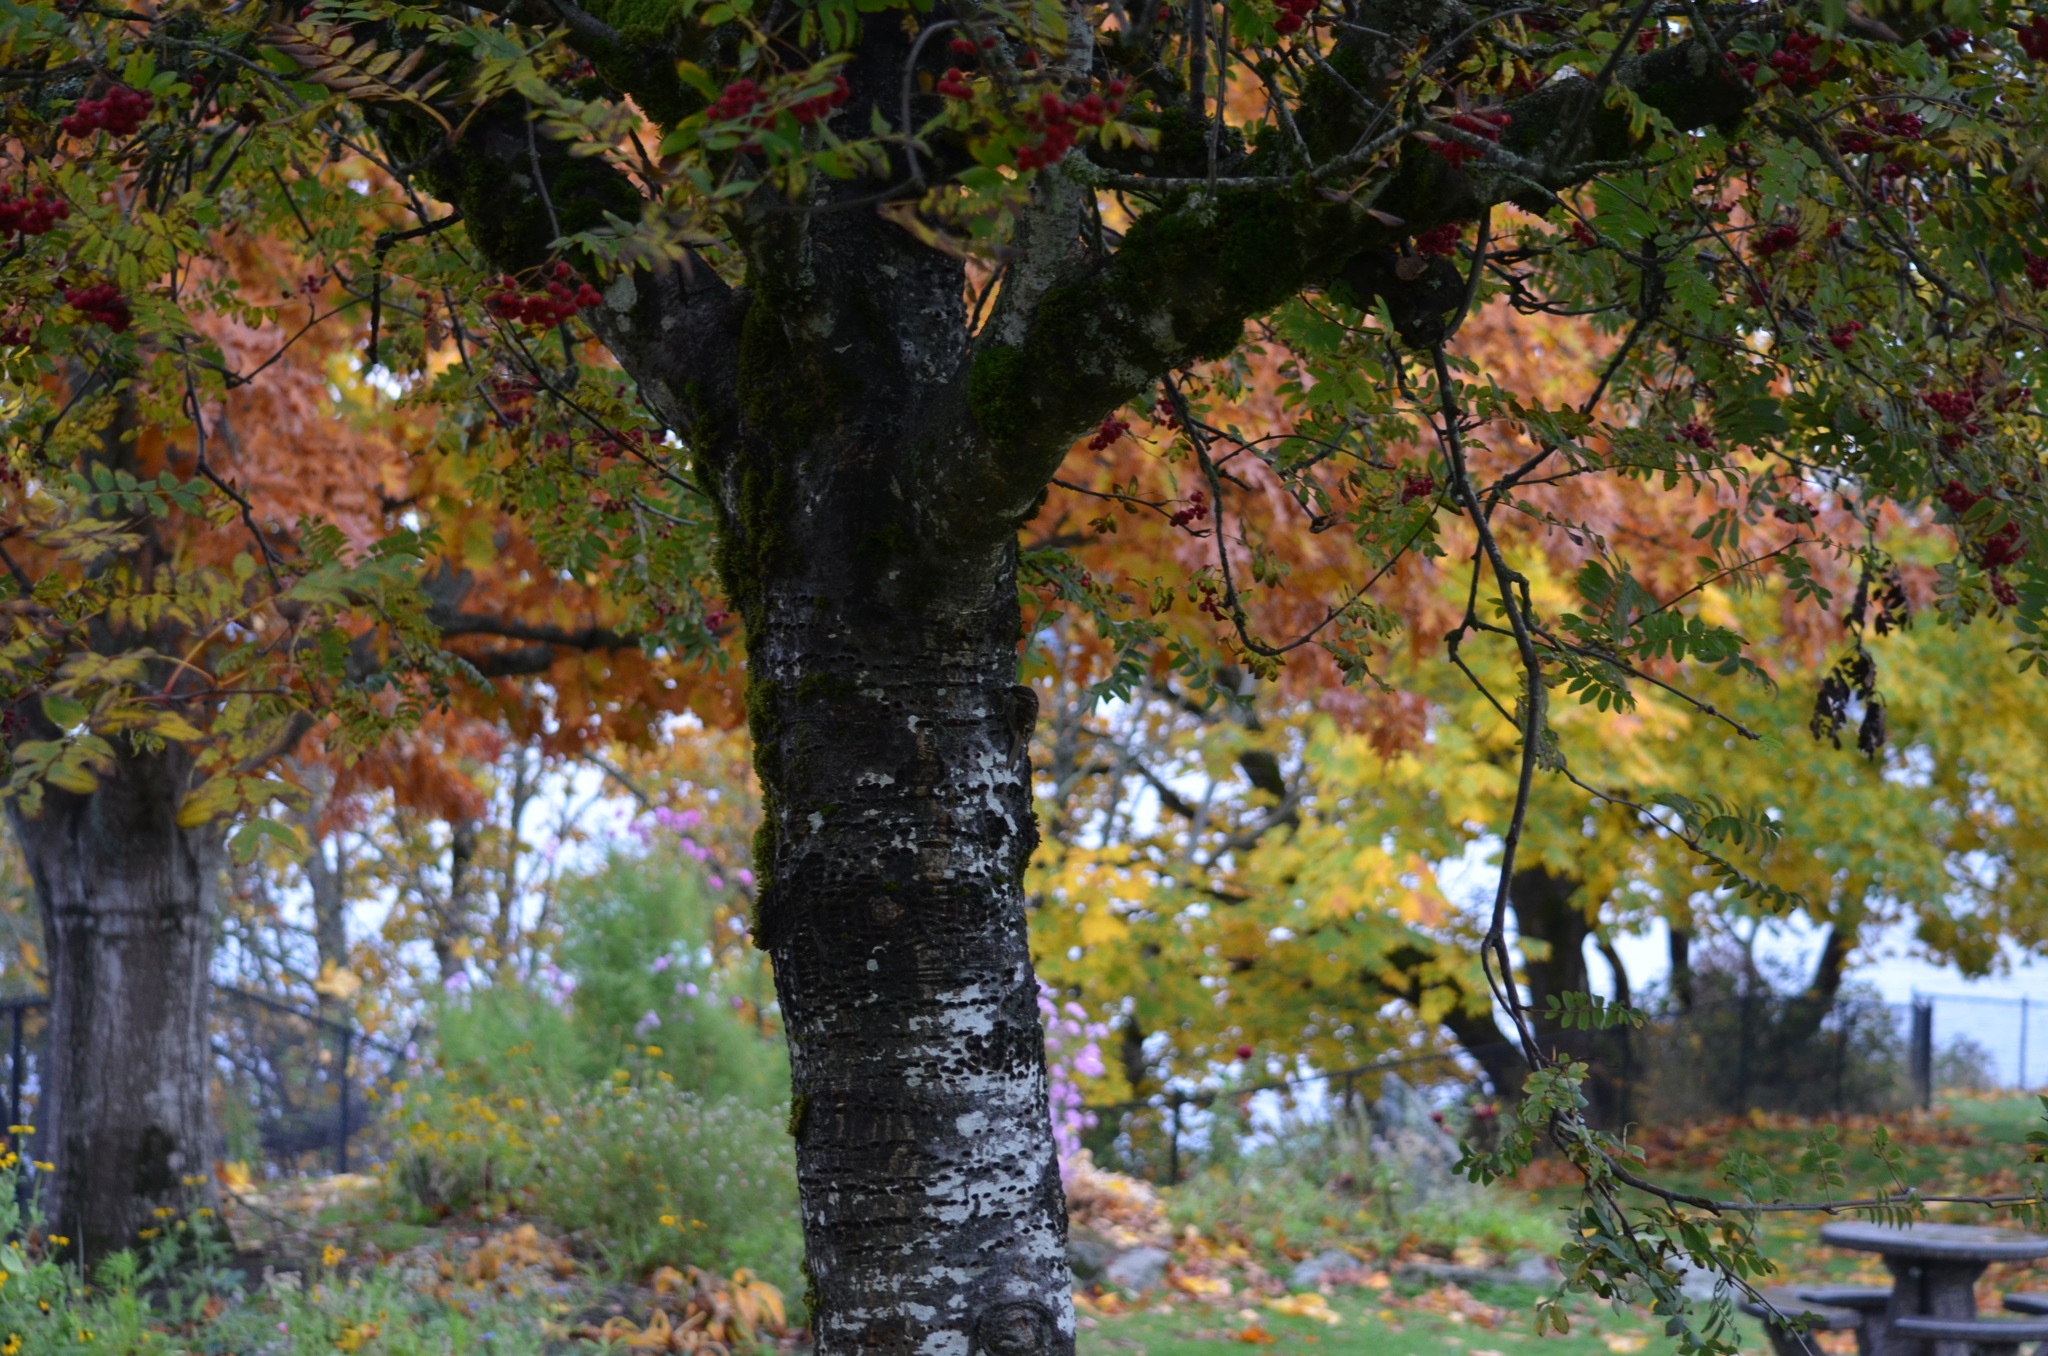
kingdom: Animalia
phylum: Chordata
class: Aves
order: Passeriformes
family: Certhiidae
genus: Certhia
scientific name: Certhia americana
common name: Brown creeper
